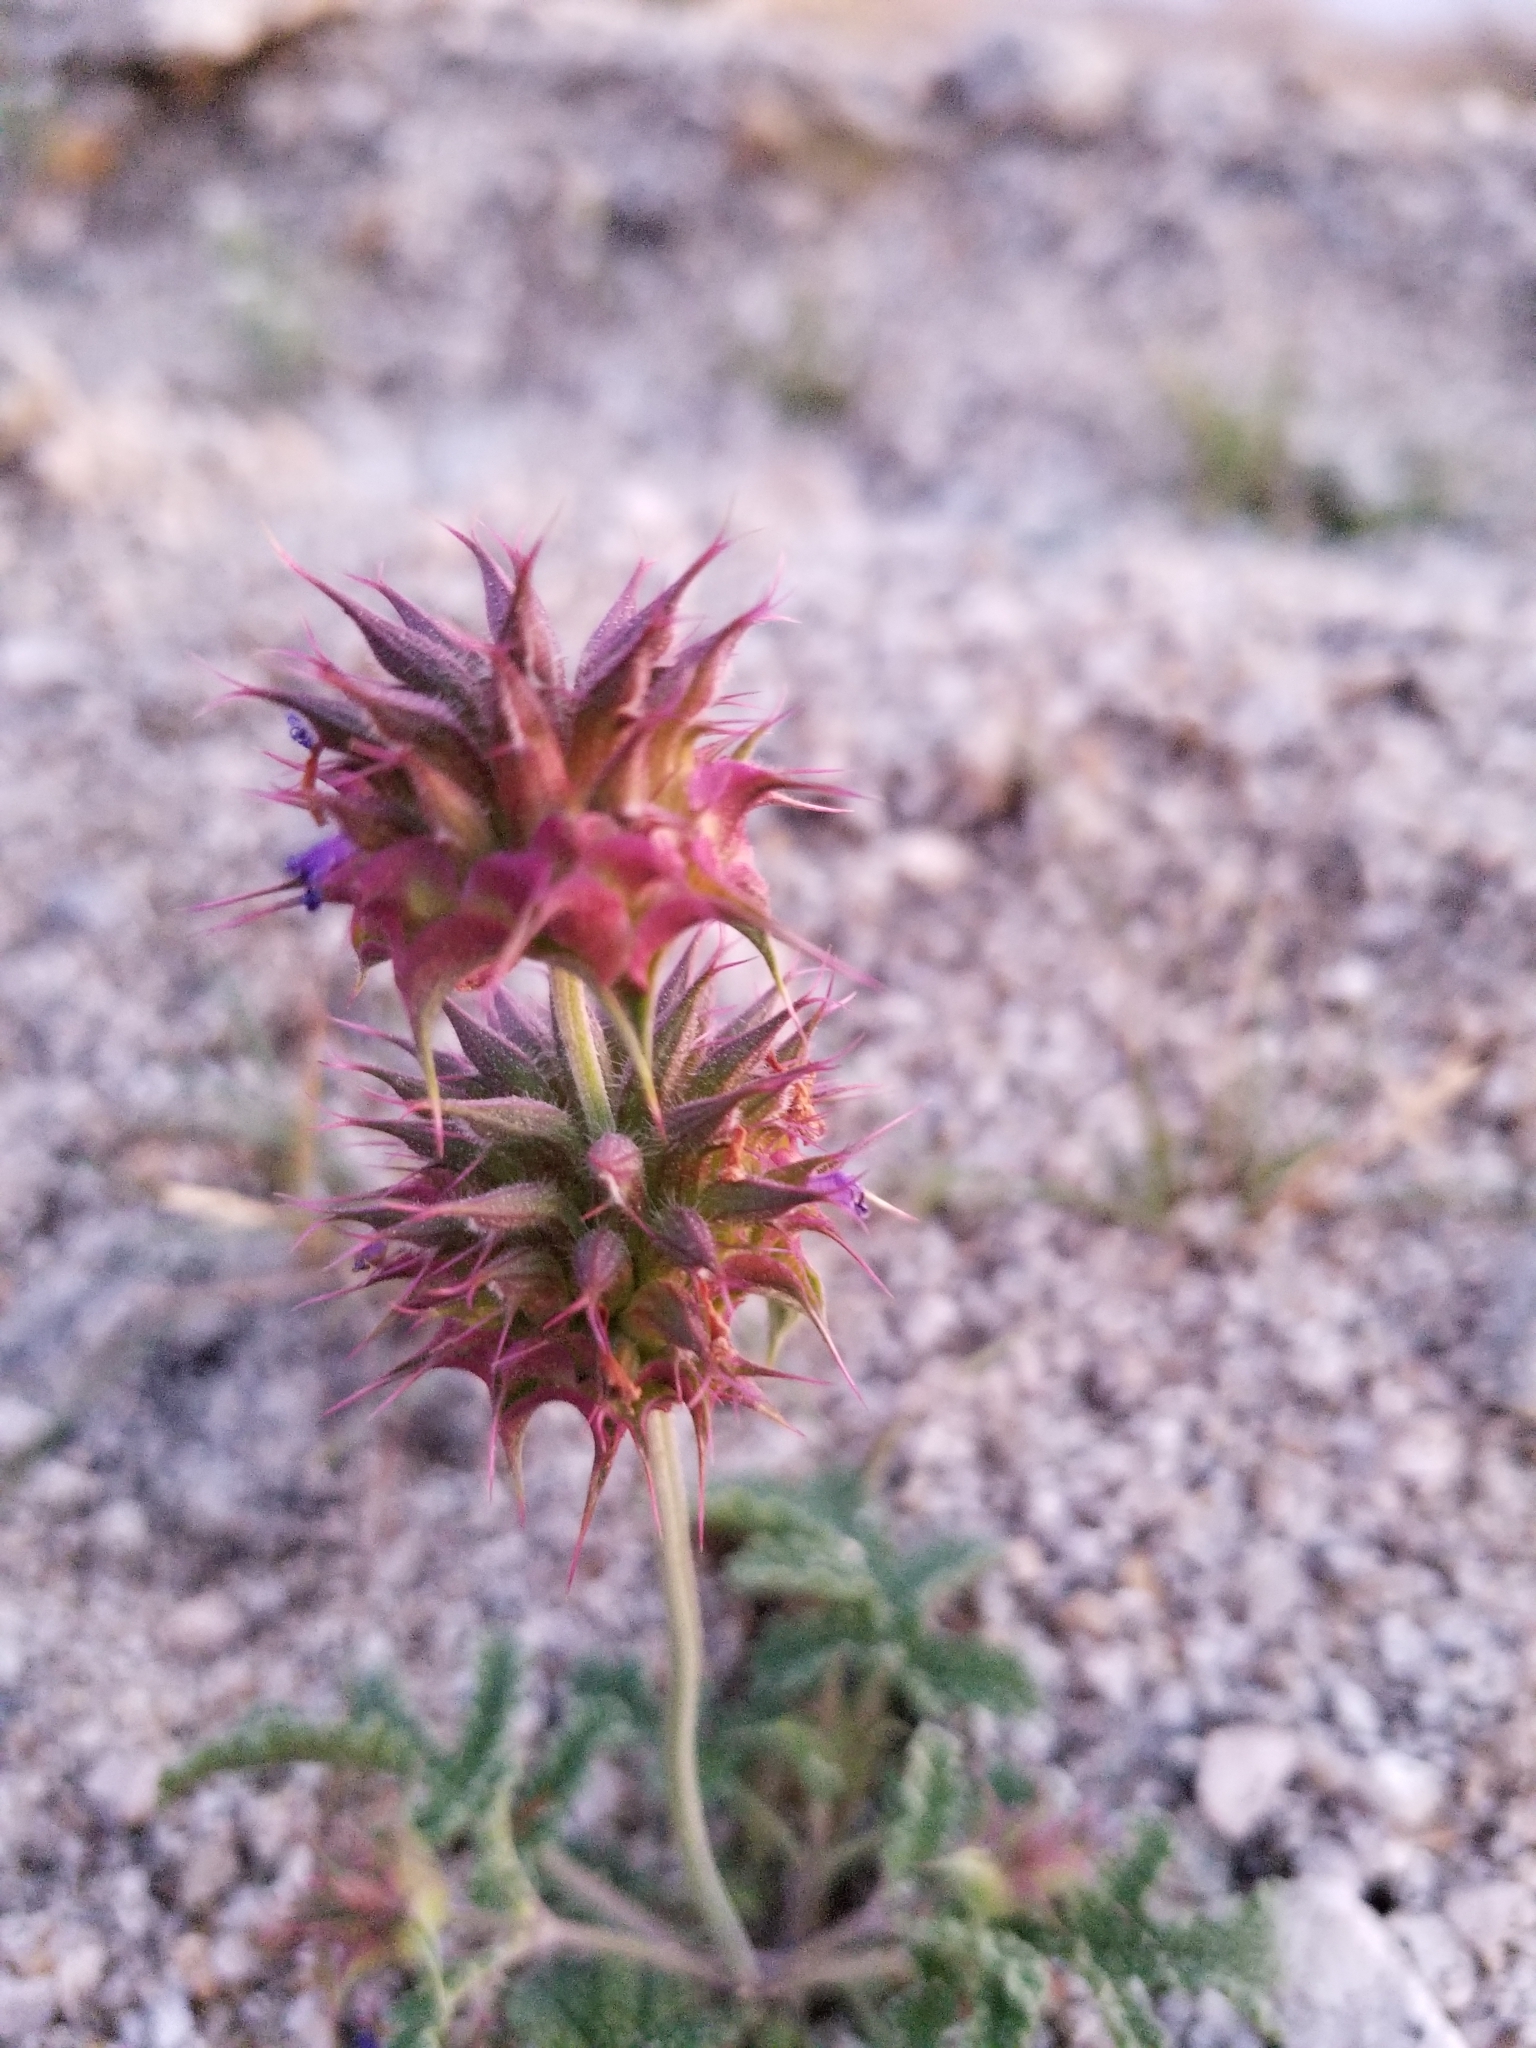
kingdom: Plantae
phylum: Tracheophyta
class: Magnoliopsida
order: Lamiales
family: Lamiaceae
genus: Salvia
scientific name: Salvia columbariae
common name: Chia
